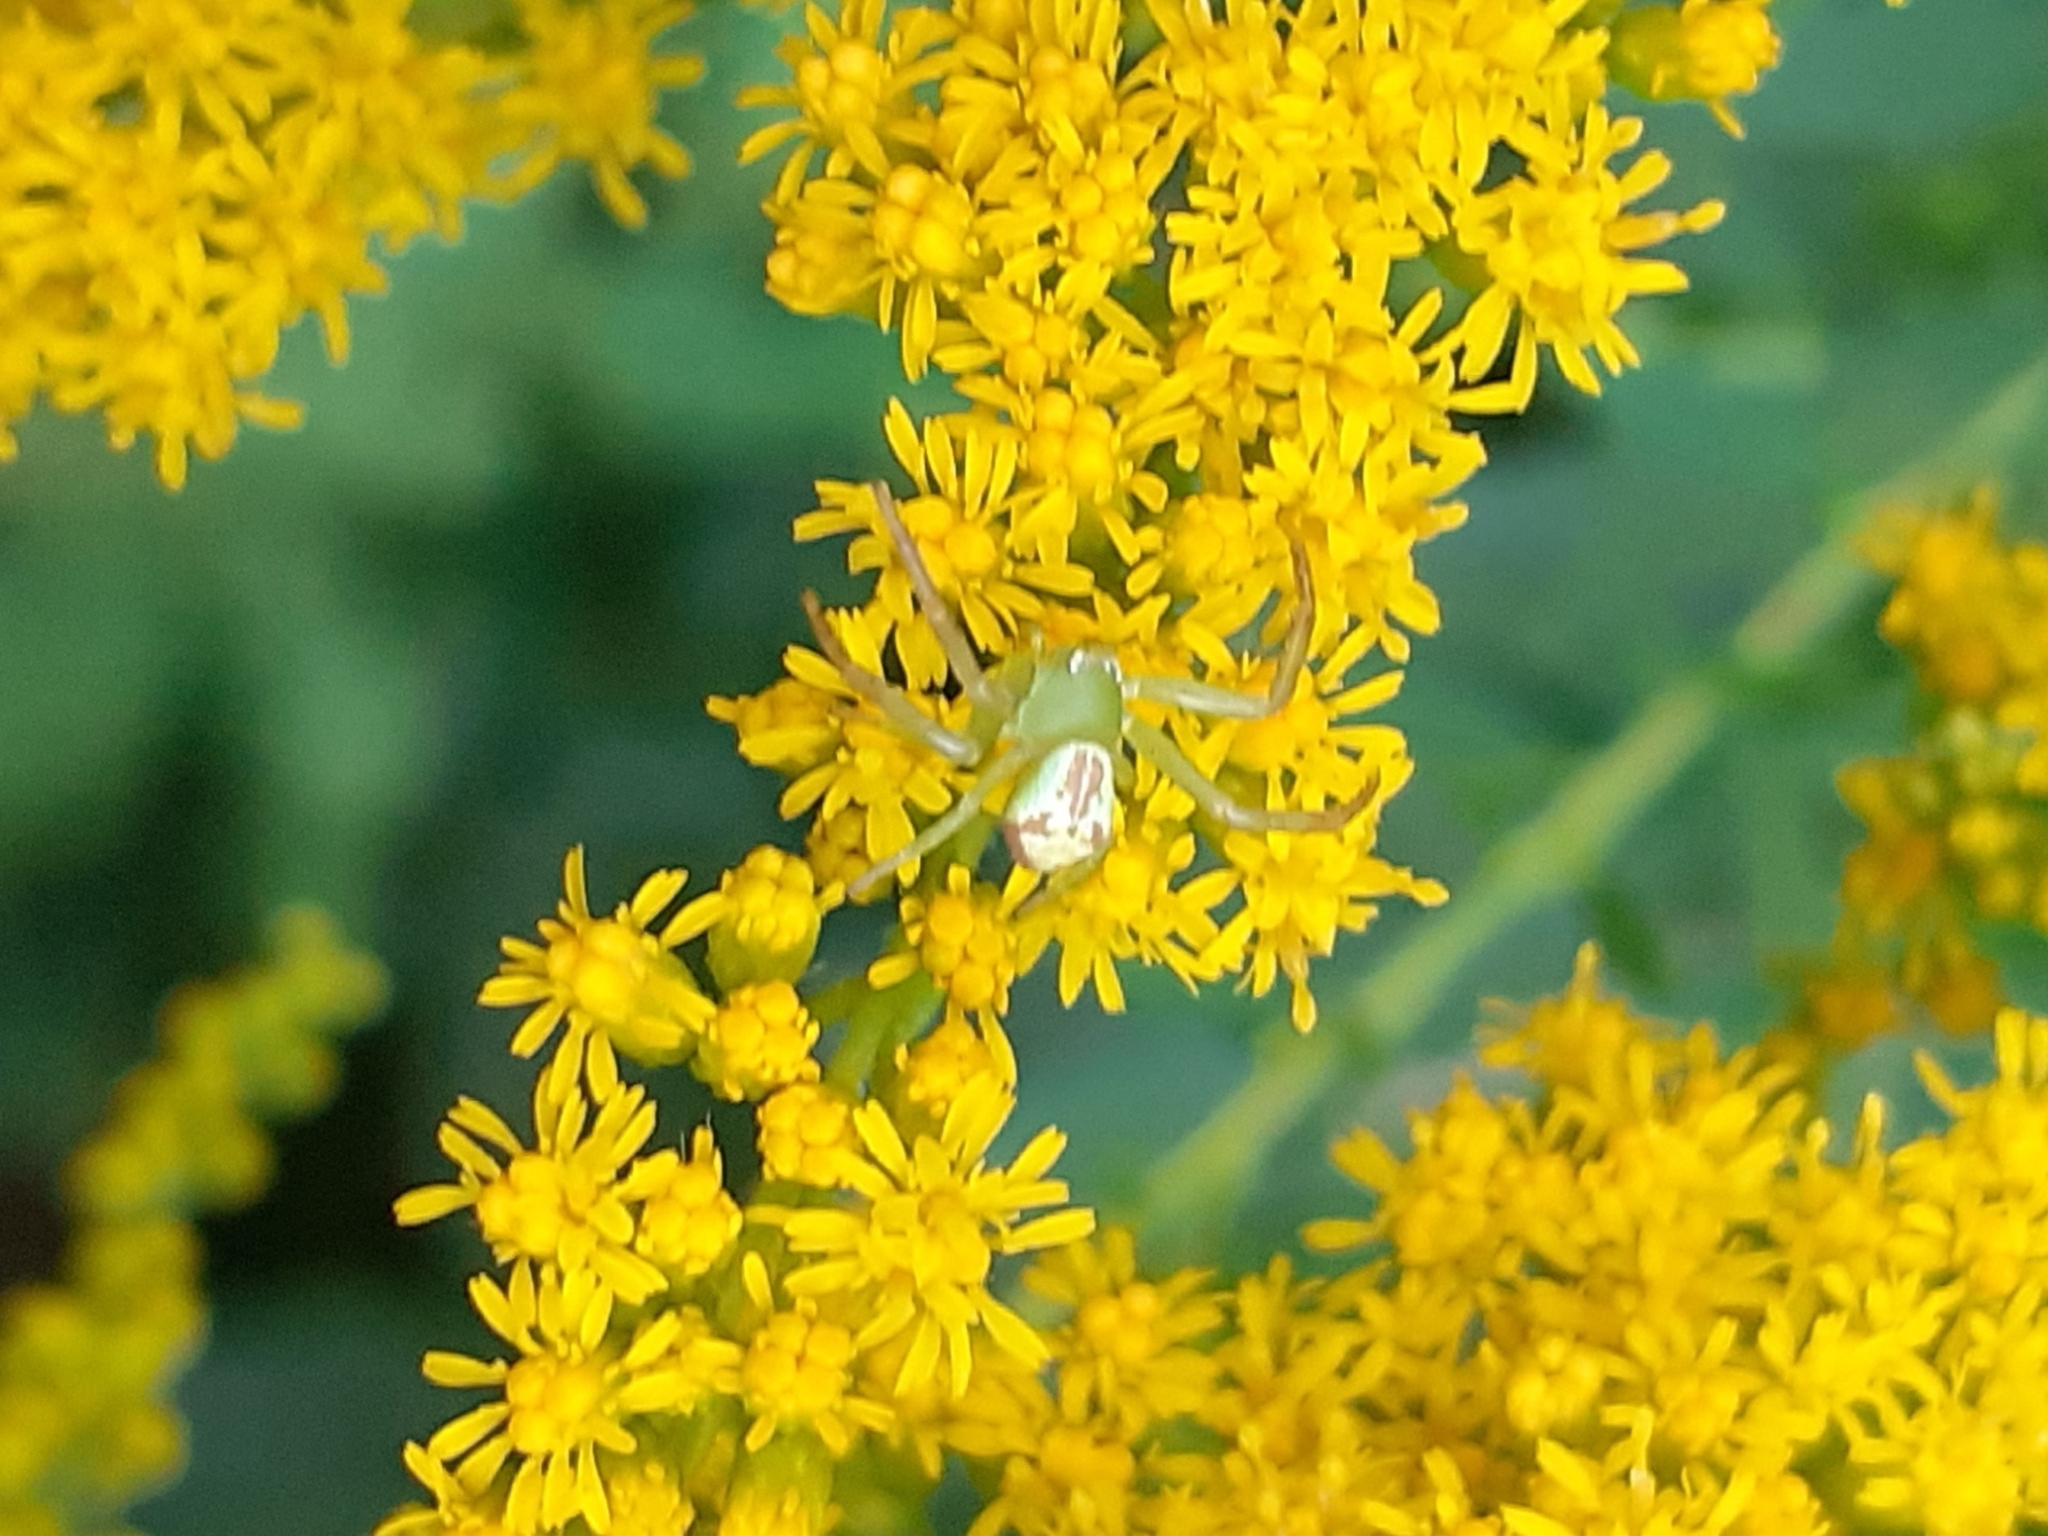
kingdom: Animalia
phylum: Arthropoda
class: Arachnida
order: Araneae
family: Thomisidae
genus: Ebrechtella
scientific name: Ebrechtella tricuspidata
